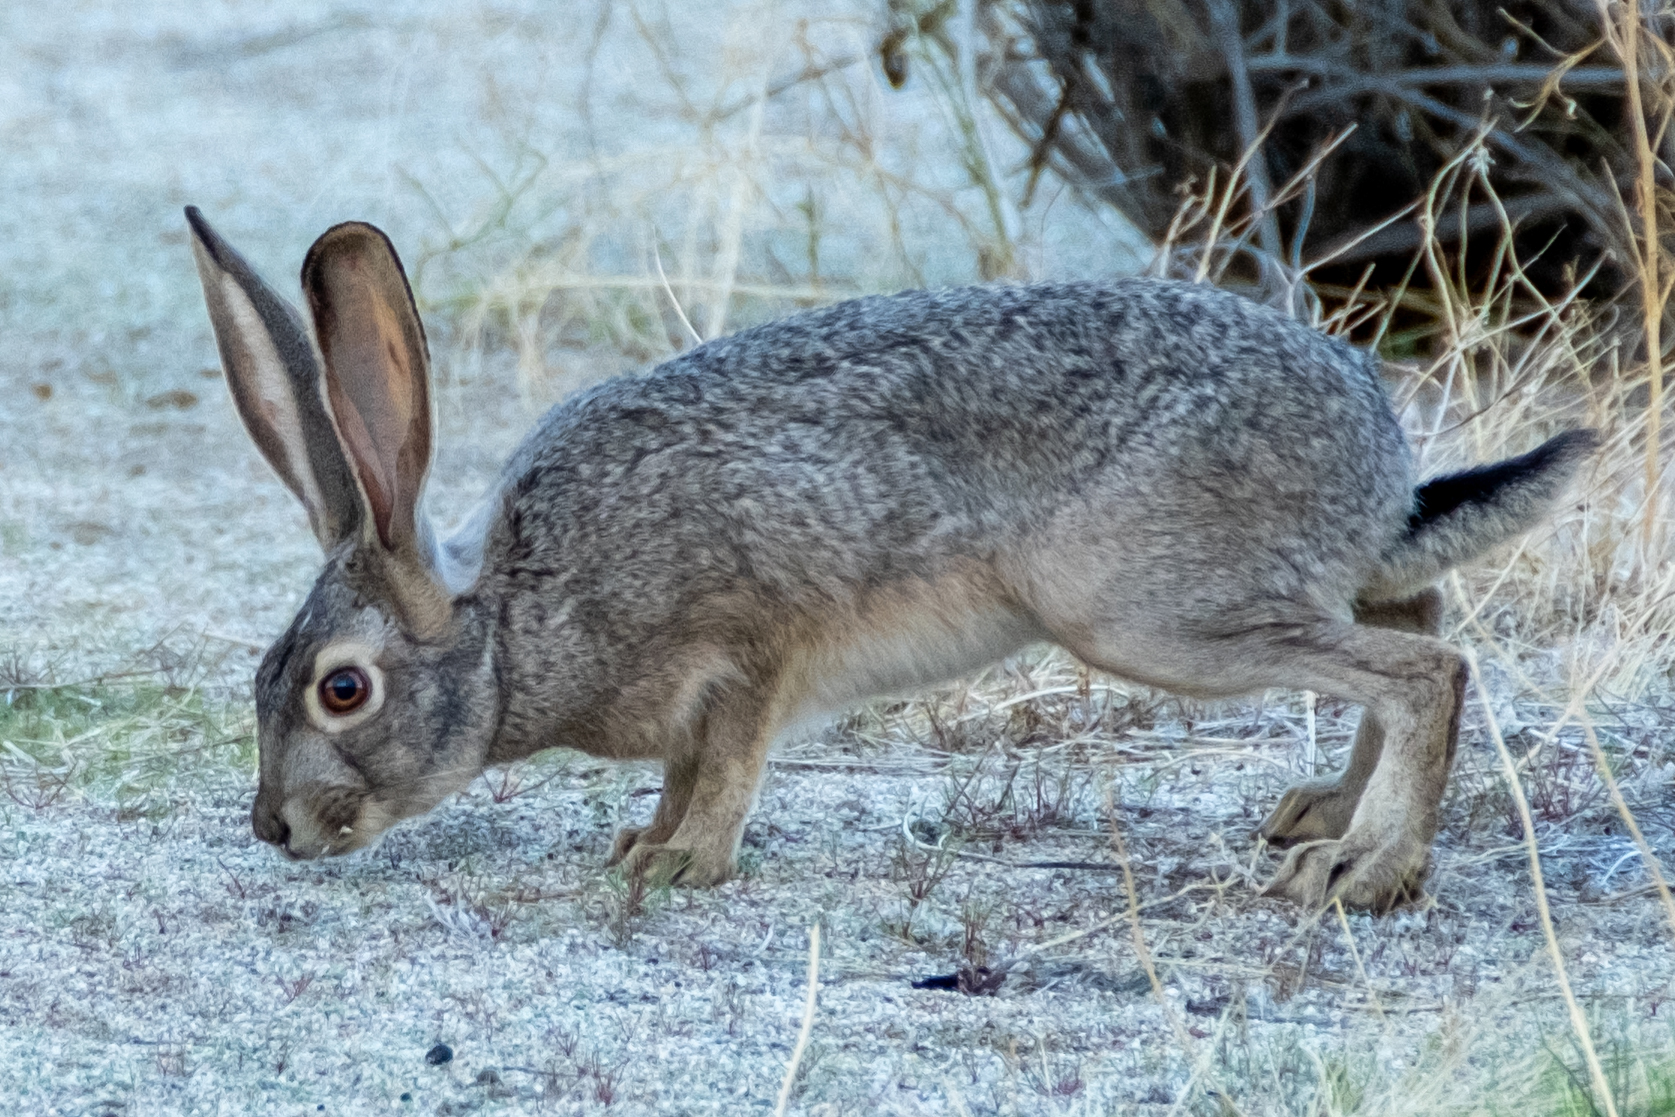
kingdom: Animalia
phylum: Chordata
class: Mammalia
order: Lagomorpha
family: Leporidae
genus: Lepus
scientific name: Lepus californicus
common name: Black-tailed jackrabbit
